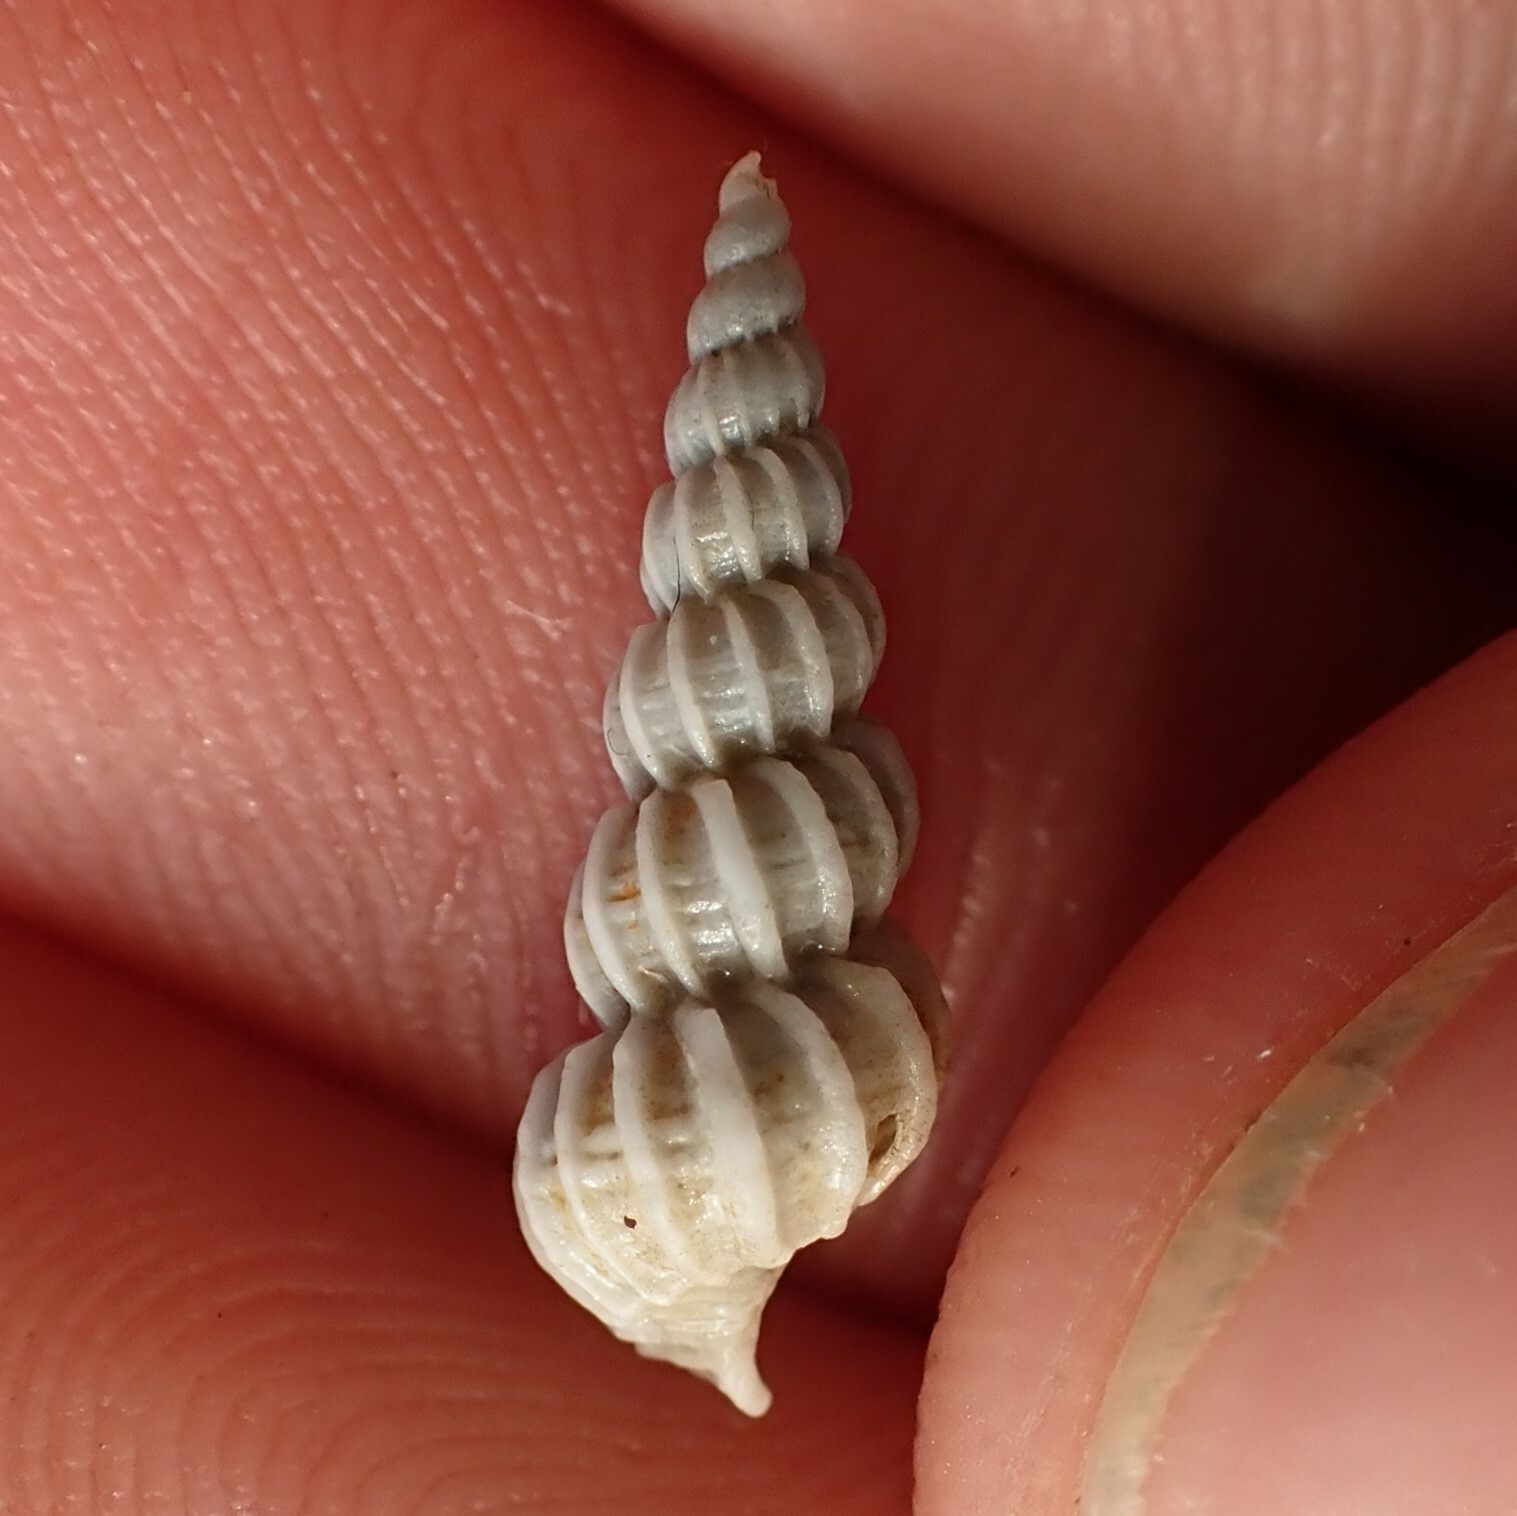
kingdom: Animalia
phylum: Mollusca
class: Gastropoda
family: Epitoniidae
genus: Cirsotrema
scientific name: Cirsotrema zelebori
